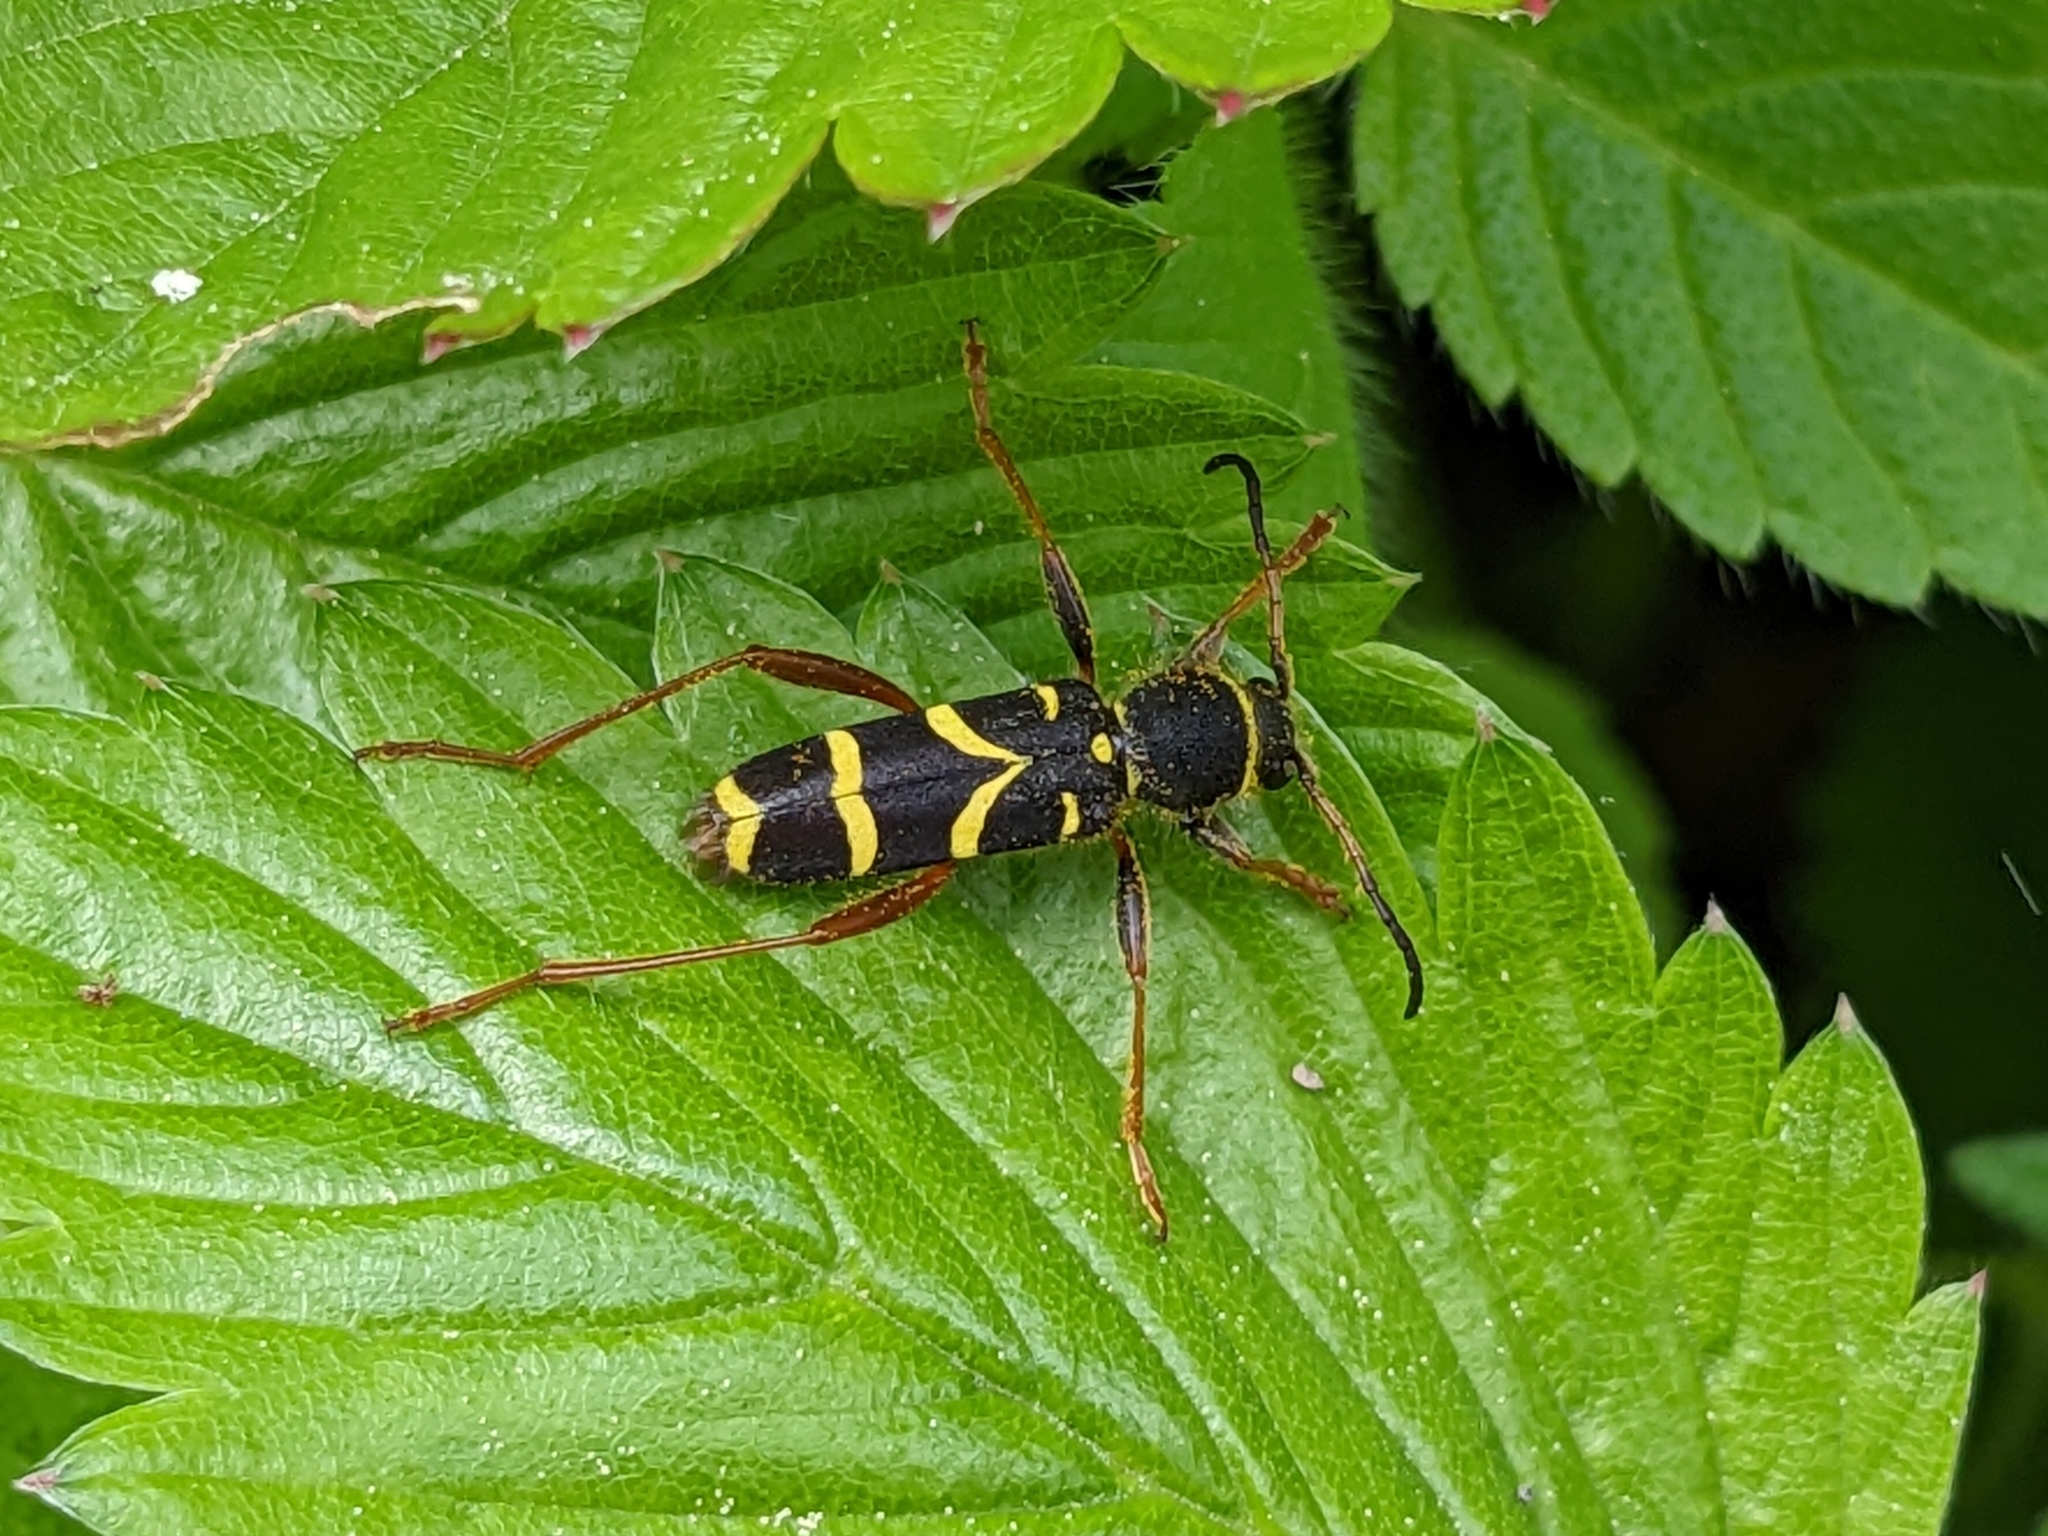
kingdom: Animalia
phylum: Arthropoda
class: Insecta
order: Coleoptera
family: Cerambycidae
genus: Clytus
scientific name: Clytus arietis
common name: Wasp beetle
